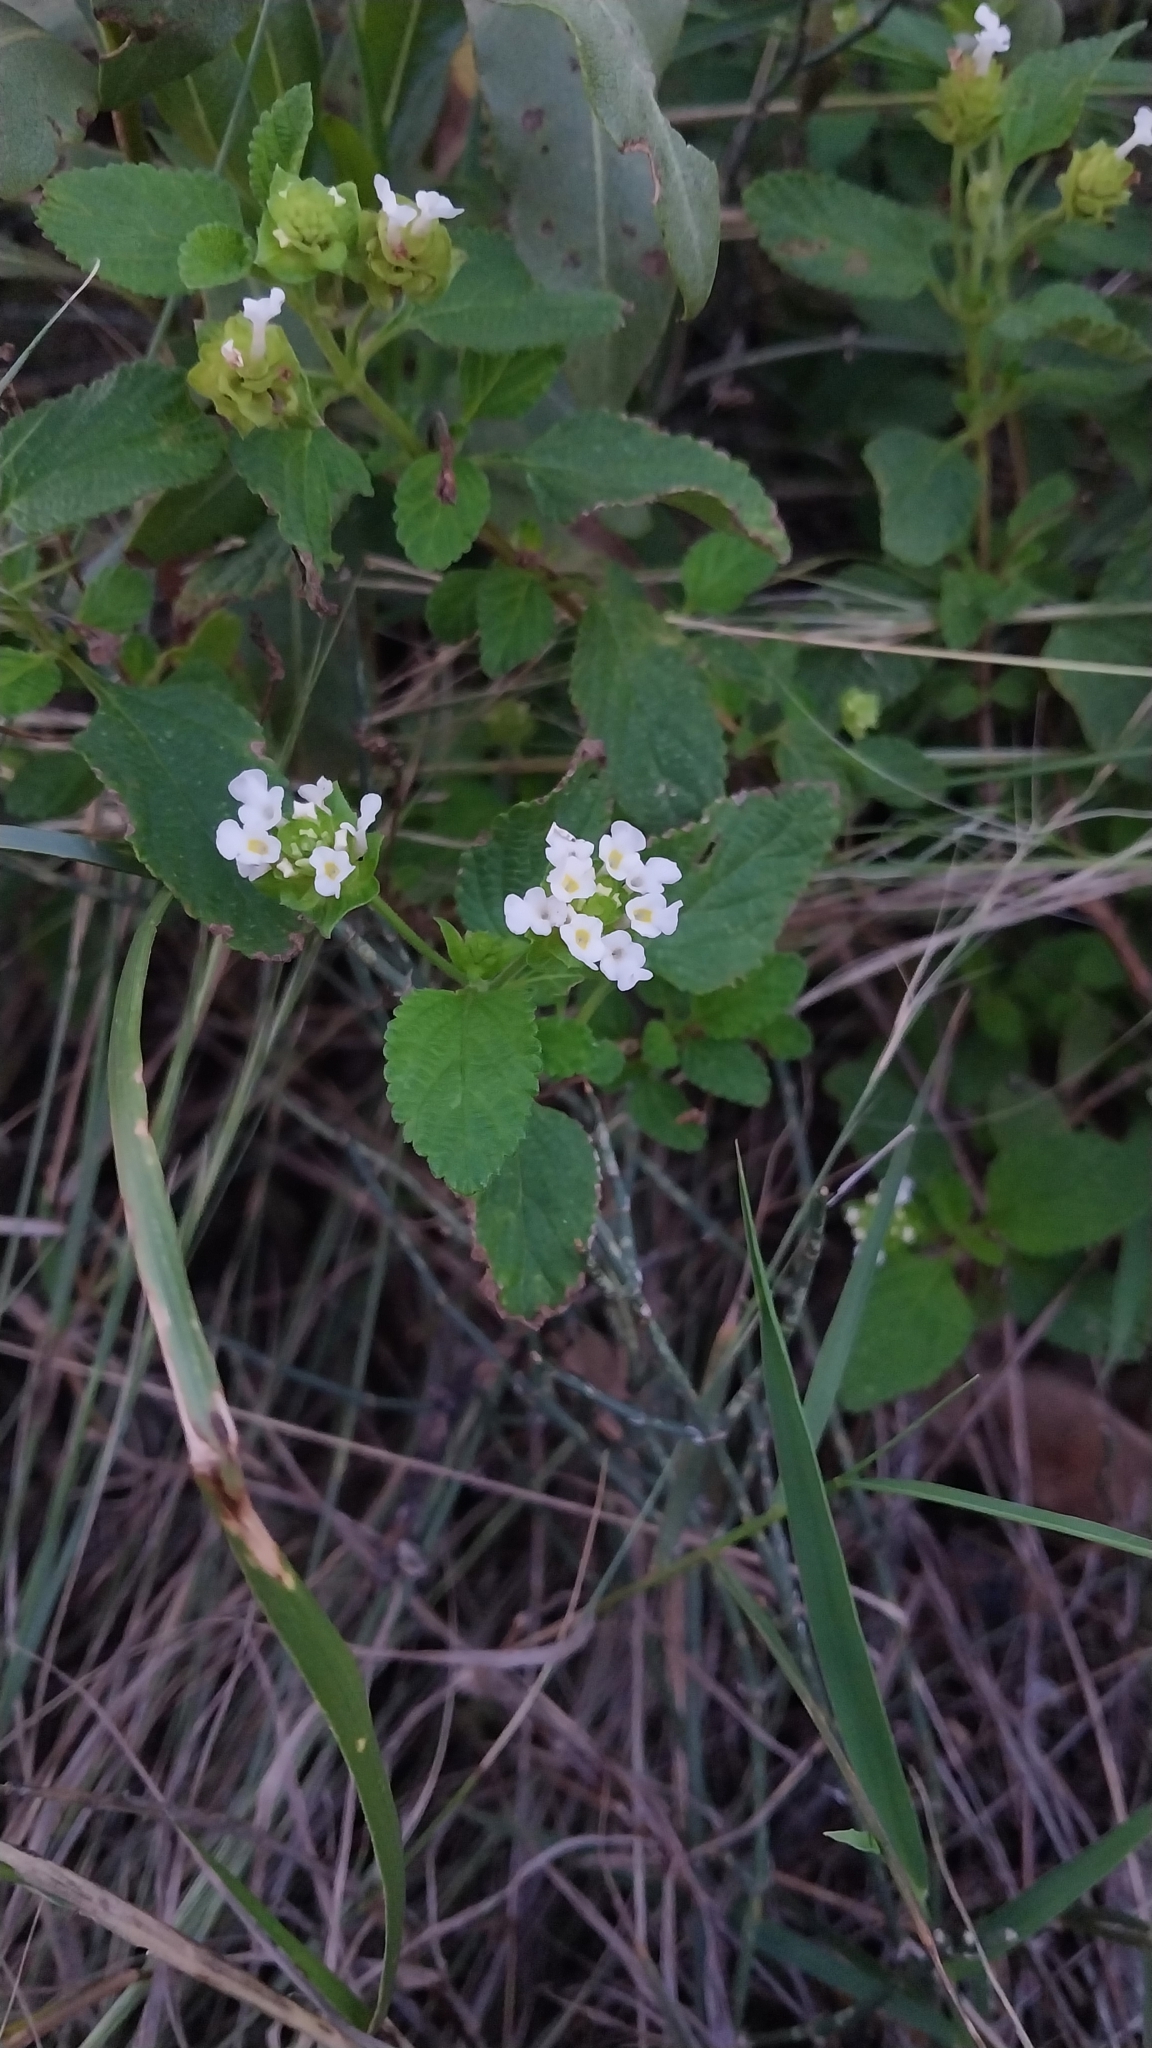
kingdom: Plantae
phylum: Tracheophyta
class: Magnoliopsida
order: Lamiales
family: Verbenaceae
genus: Lantana
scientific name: Lantana grisebachii
